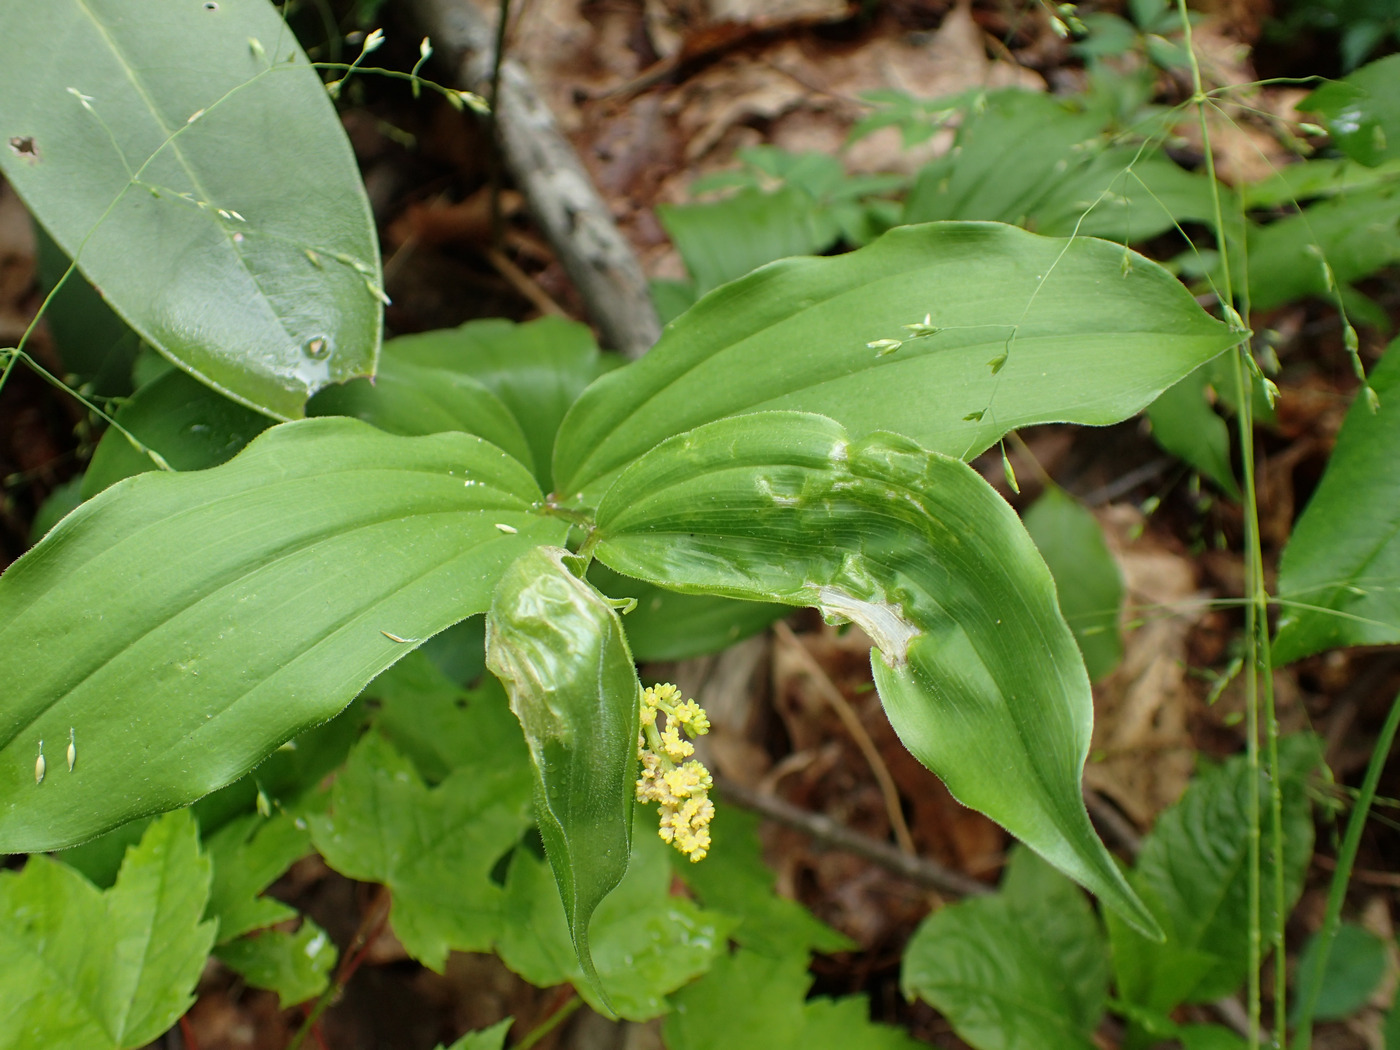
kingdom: Plantae
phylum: Tracheophyta
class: Liliopsida
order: Asparagales
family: Asparagaceae
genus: Maianthemum
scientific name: Maianthemum racemosum
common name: False spikenard
